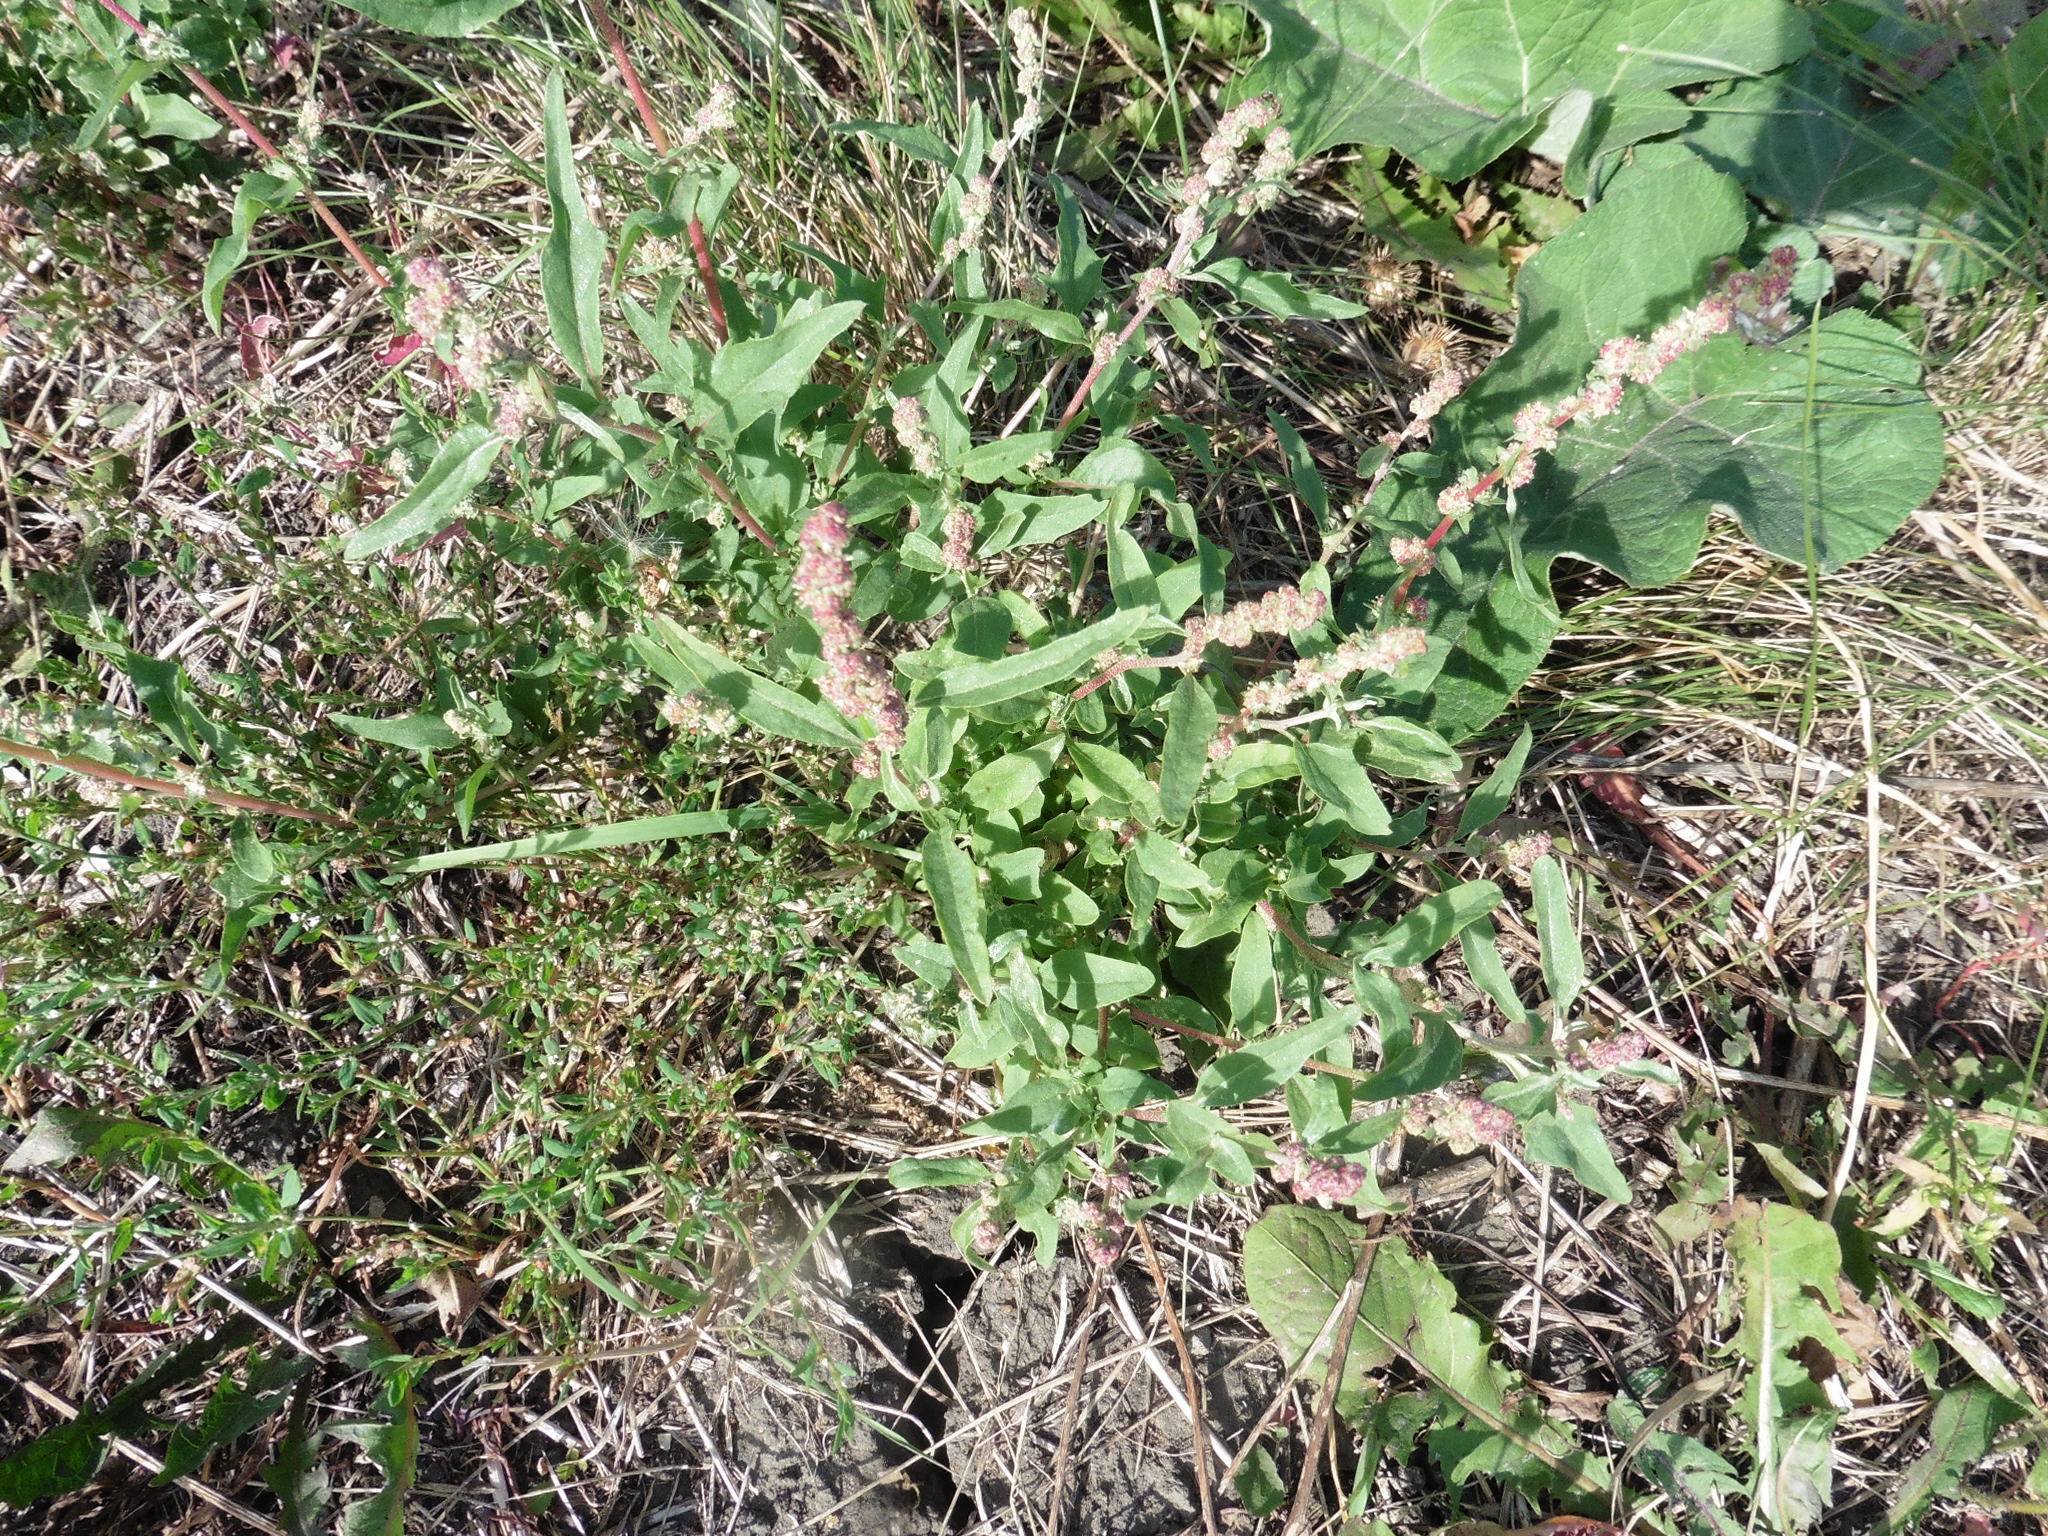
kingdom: Plantae
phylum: Tracheophyta
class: Magnoliopsida
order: Caryophyllales
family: Amaranthaceae
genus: Atriplex
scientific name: Atriplex tatarica
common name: Tatarian orache
